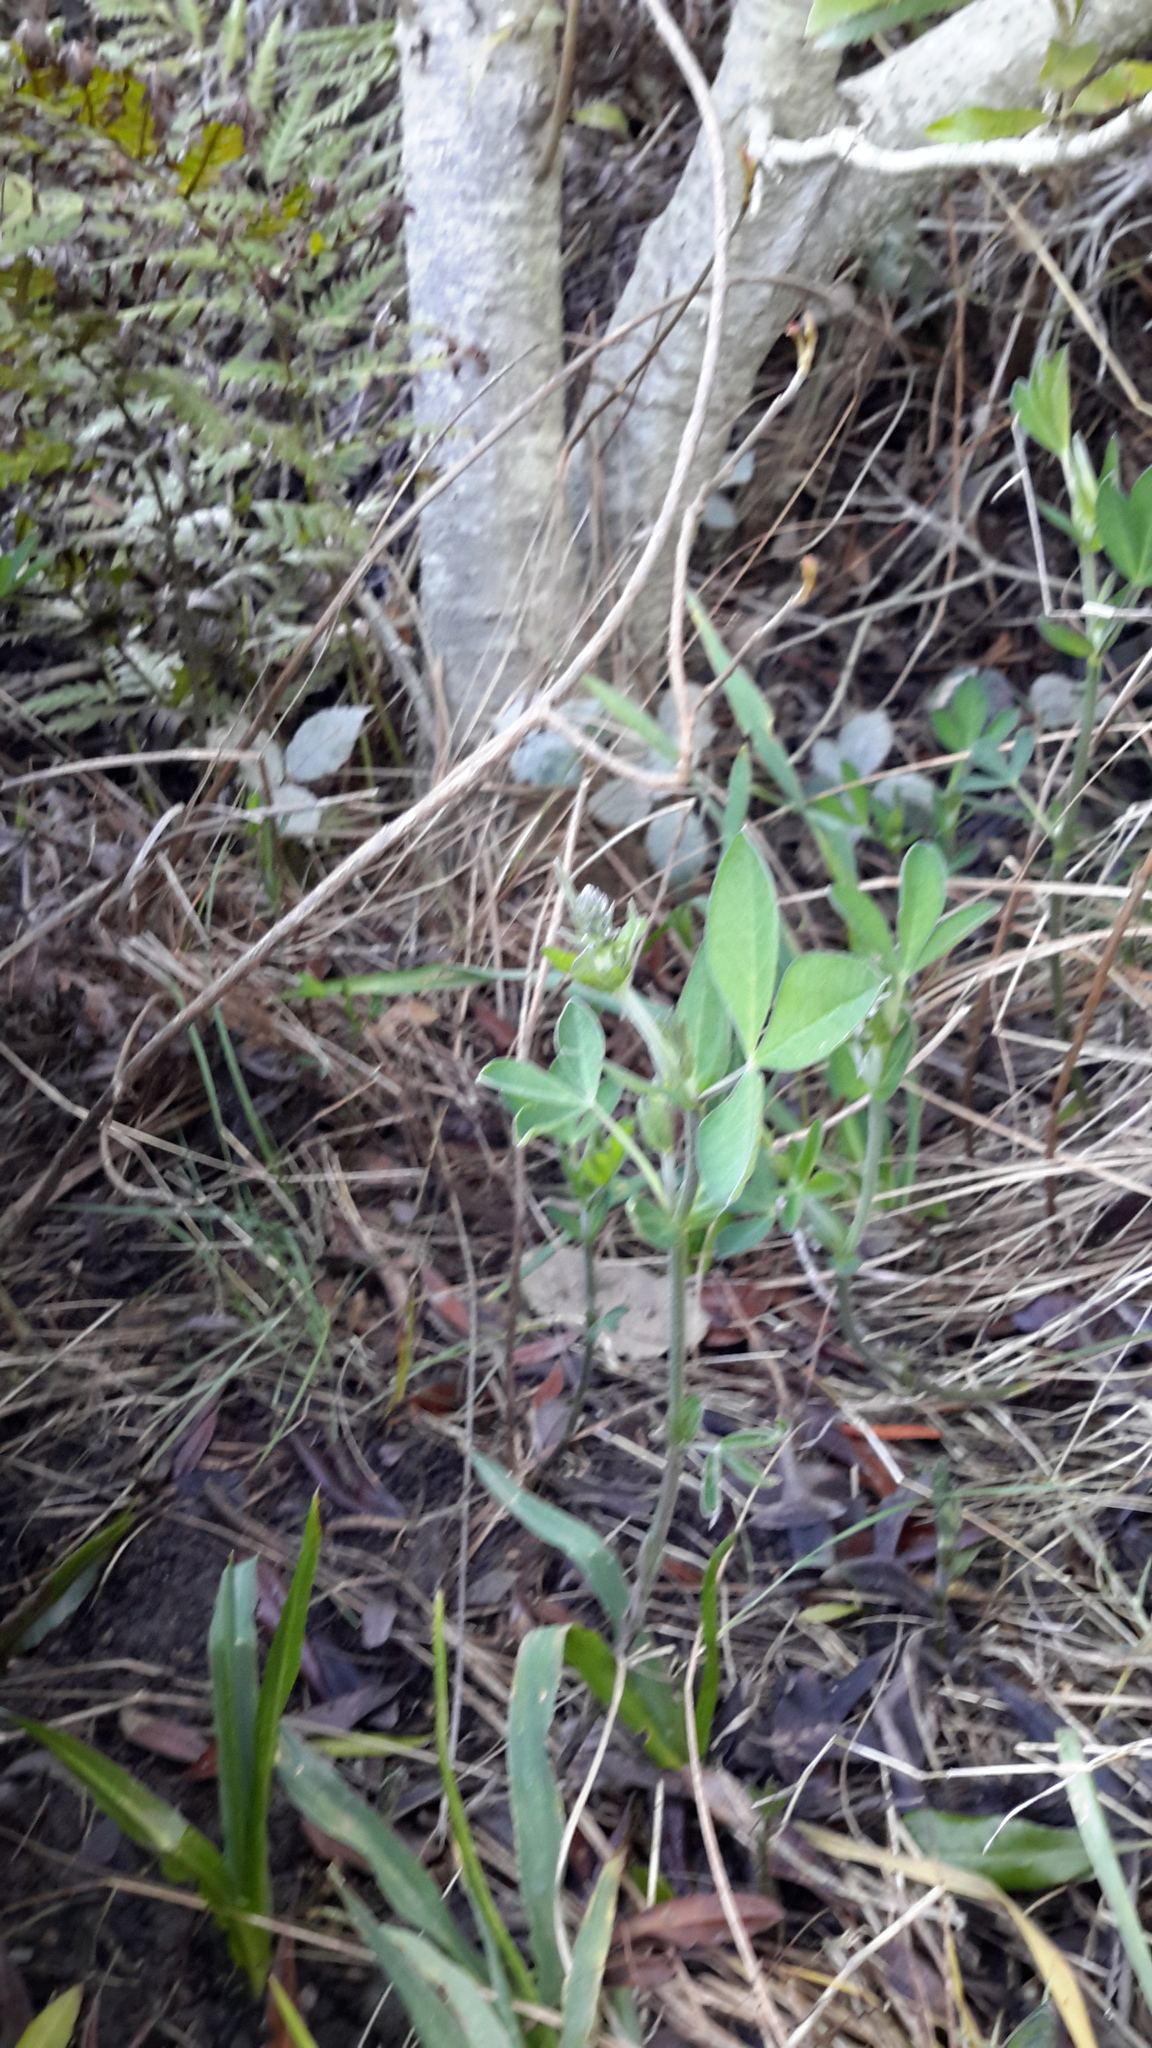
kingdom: Plantae
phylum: Tracheophyta
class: Magnoliopsida
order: Fabales
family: Fabaceae
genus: Thermopsis
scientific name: Thermopsis californica
